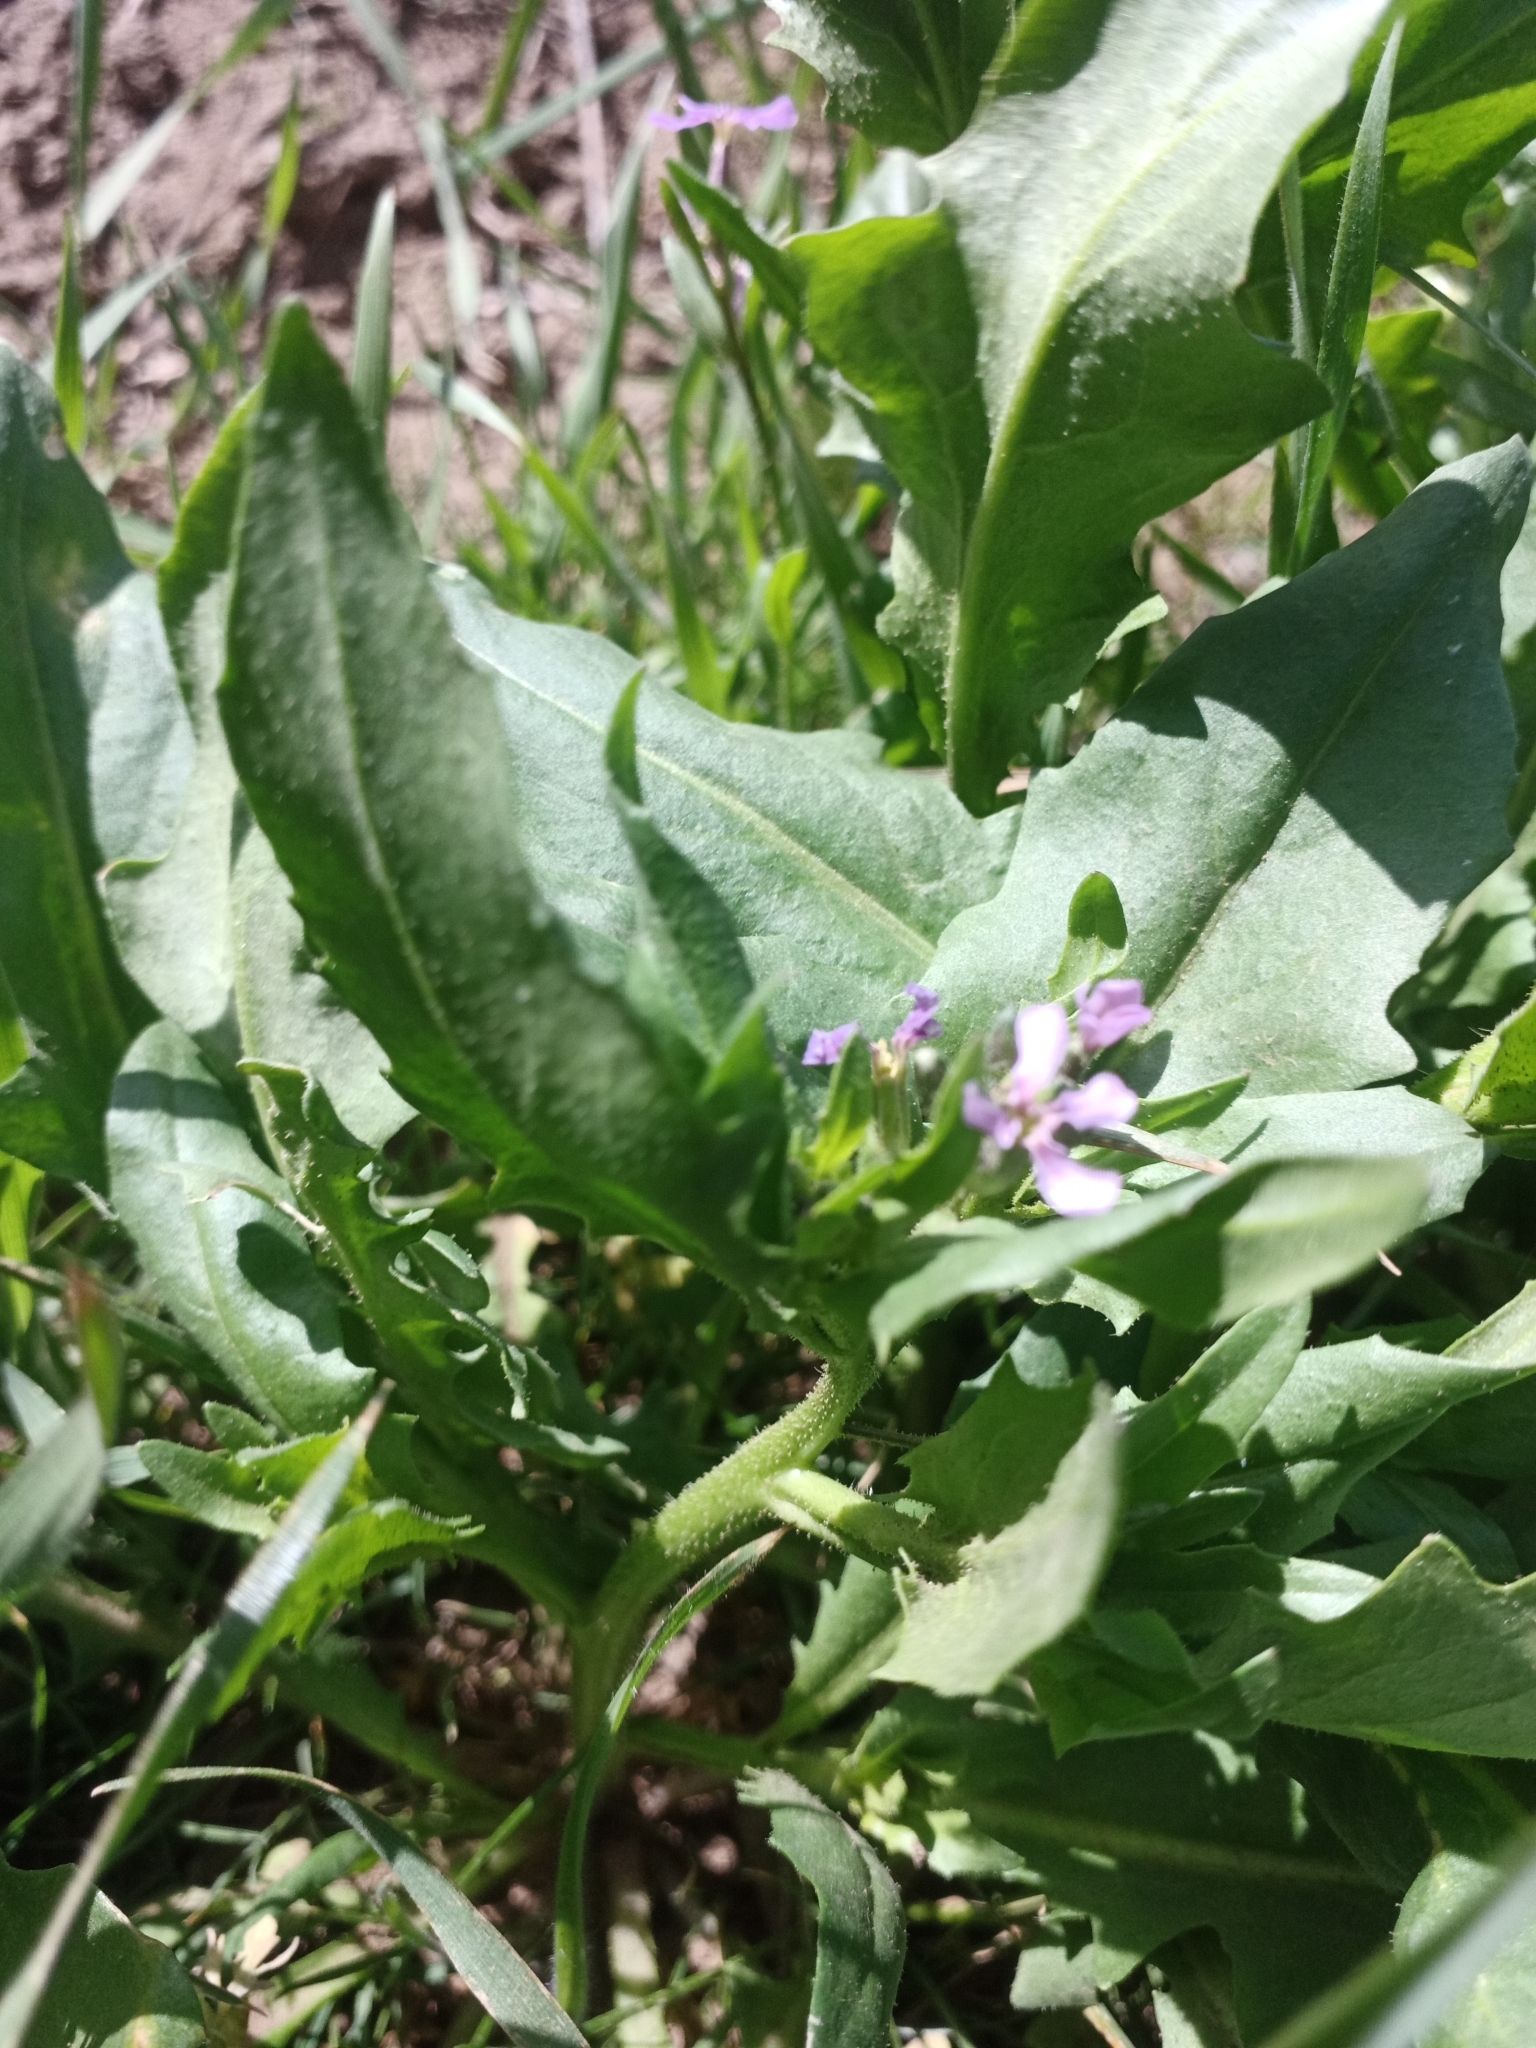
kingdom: Plantae
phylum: Tracheophyta
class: Magnoliopsida
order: Brassicales
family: Brassicaceae
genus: Chorispora
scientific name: Chorispora tenella
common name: Crossflower
